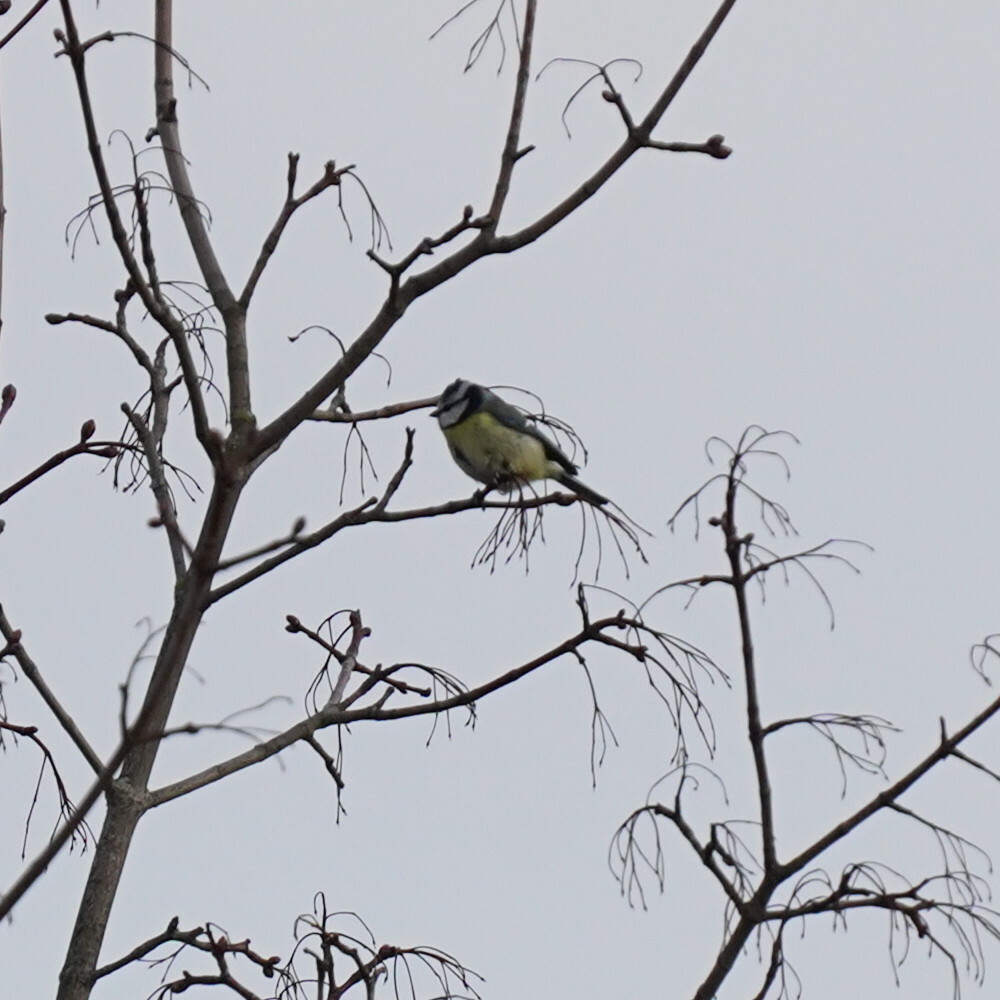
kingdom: Animalia
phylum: Chordata
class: Aves
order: Passeriformes
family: Paridae
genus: Cyanistes
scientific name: Cyanistes caeruleus
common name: Eurasian blue tit
